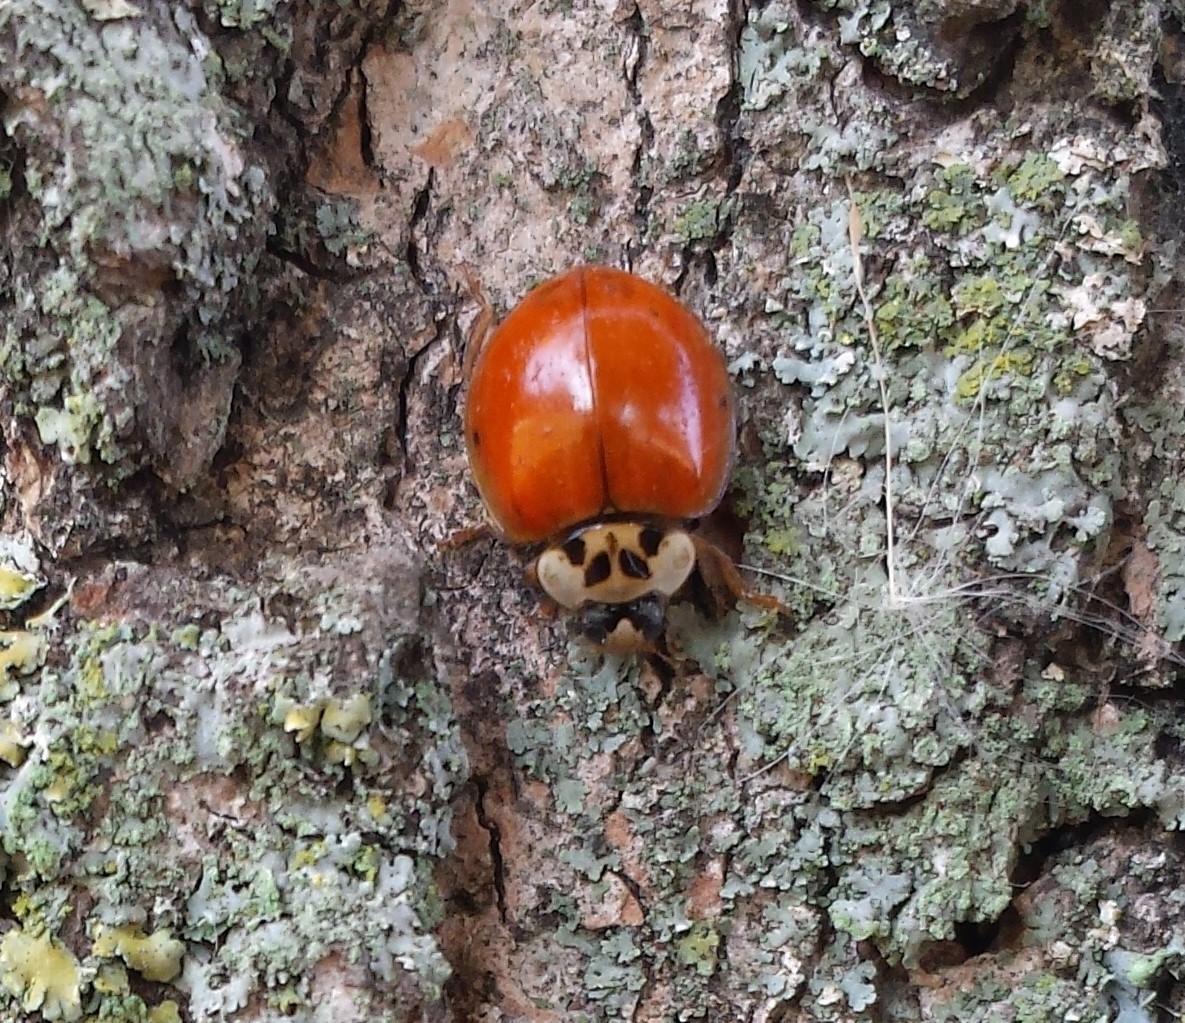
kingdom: Animalia
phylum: Arthropoda
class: Insecta
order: Coleoptera
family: Coccinellidae
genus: Harmonia
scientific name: Harmonia axyridis
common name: Harlequin ladybird
